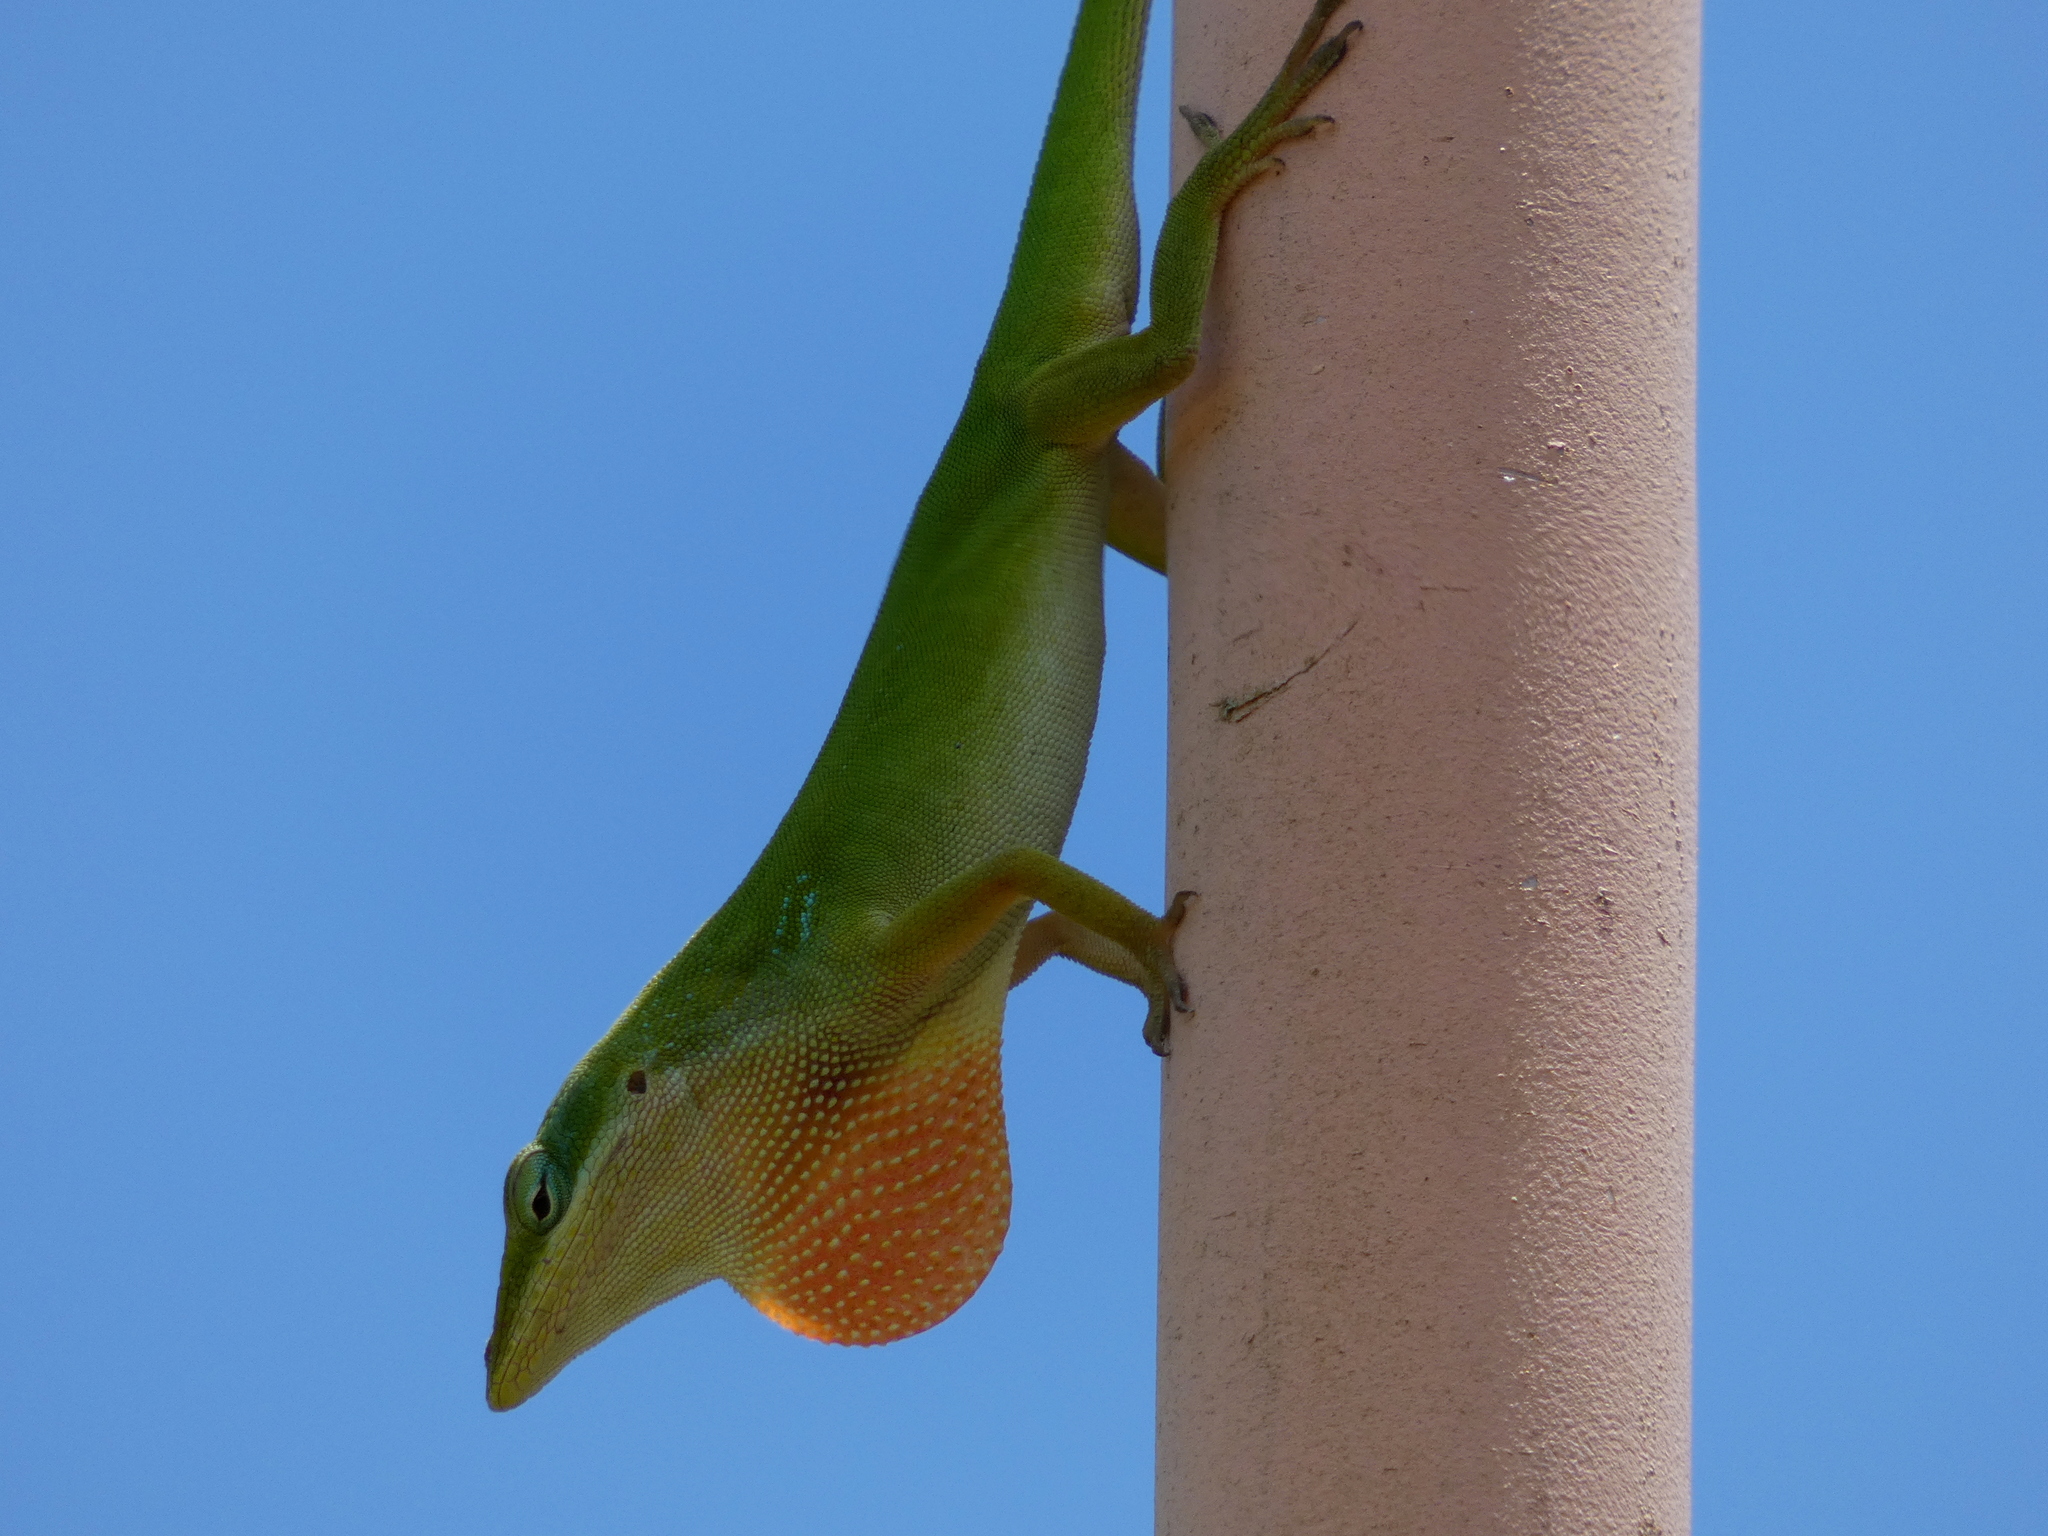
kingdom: Animalia
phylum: Chordata
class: Squamata
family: Dactyloidae
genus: Anolis
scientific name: Anolis carolinensis
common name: Green anole
